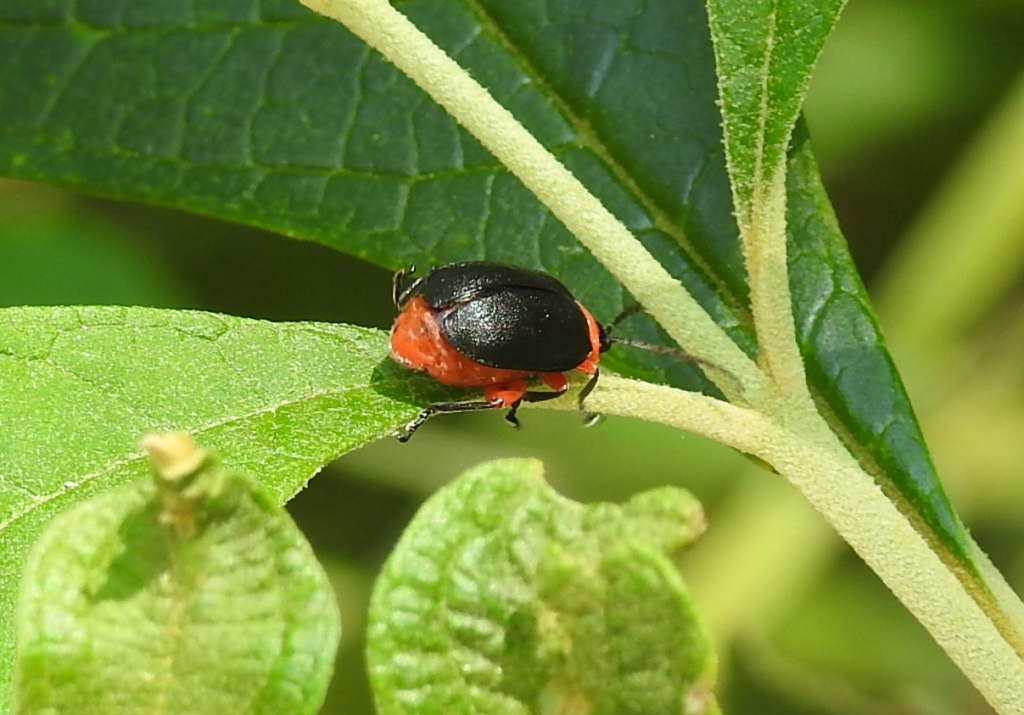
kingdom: Animalia
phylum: Arthropoda
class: Insecta
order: Coleoptera
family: Chrysomelidae
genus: Asphaera
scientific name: Asphaera abdominalis
